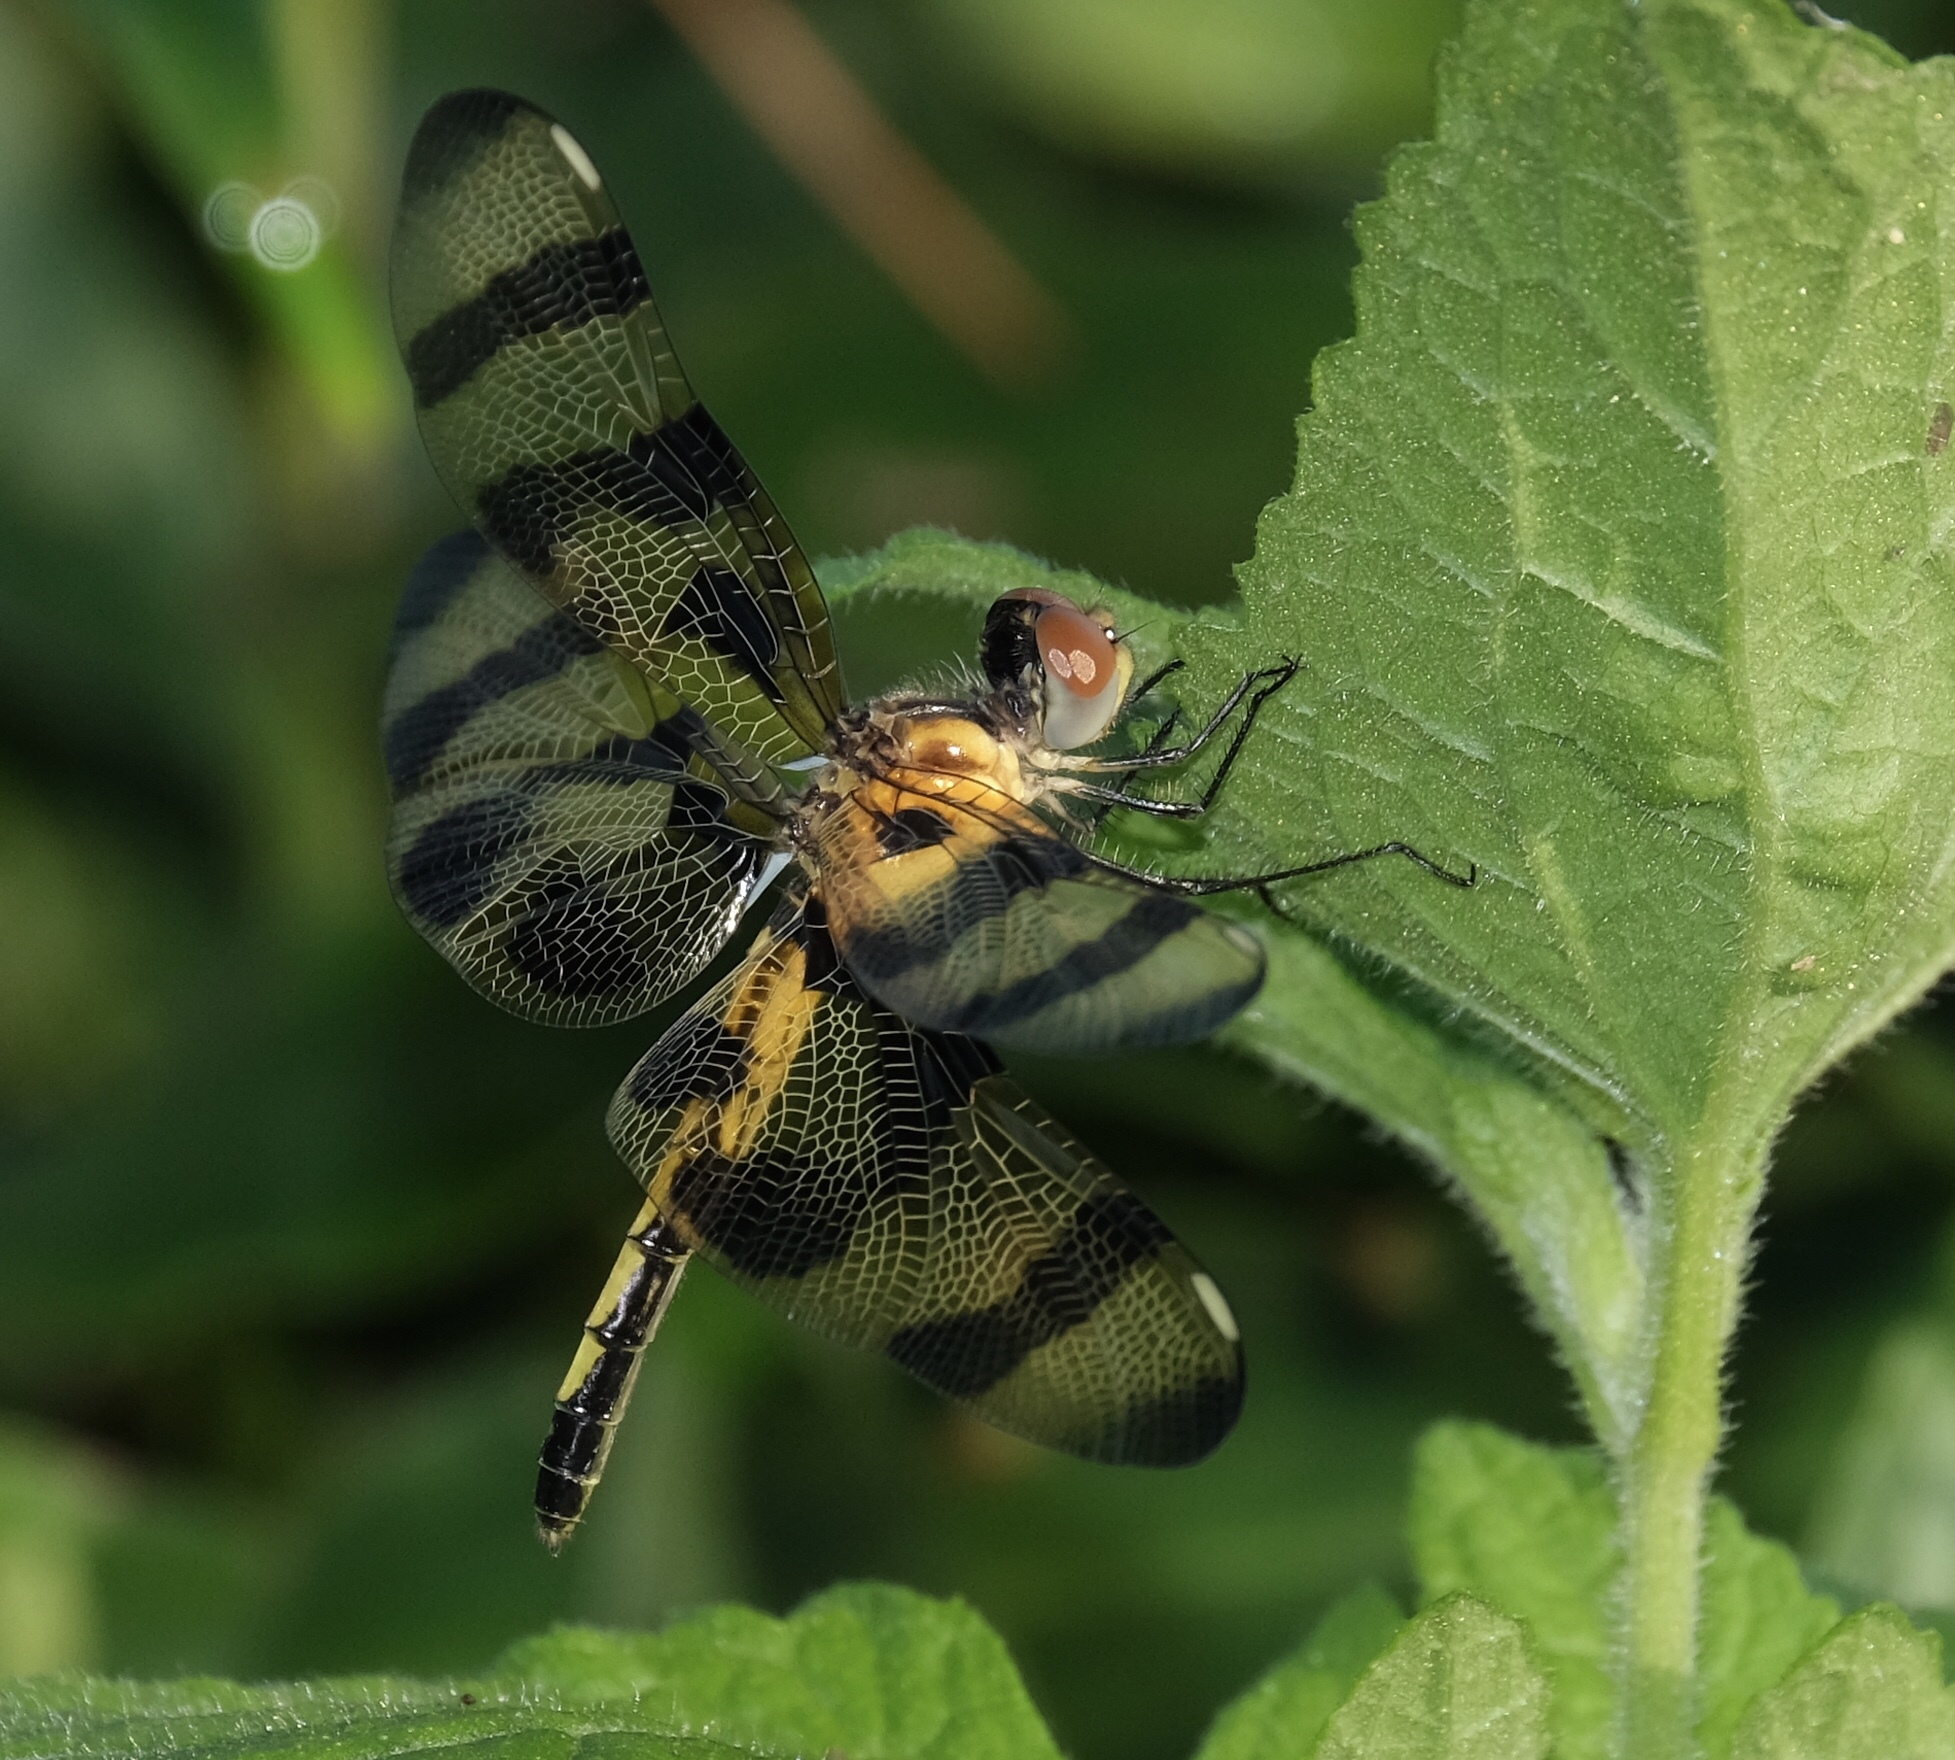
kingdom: Animalia
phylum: Arthropoda
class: Insecta
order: Odonata
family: Libellulidae
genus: Celithemis
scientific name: Celithemis eponina
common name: Halloween pennant
